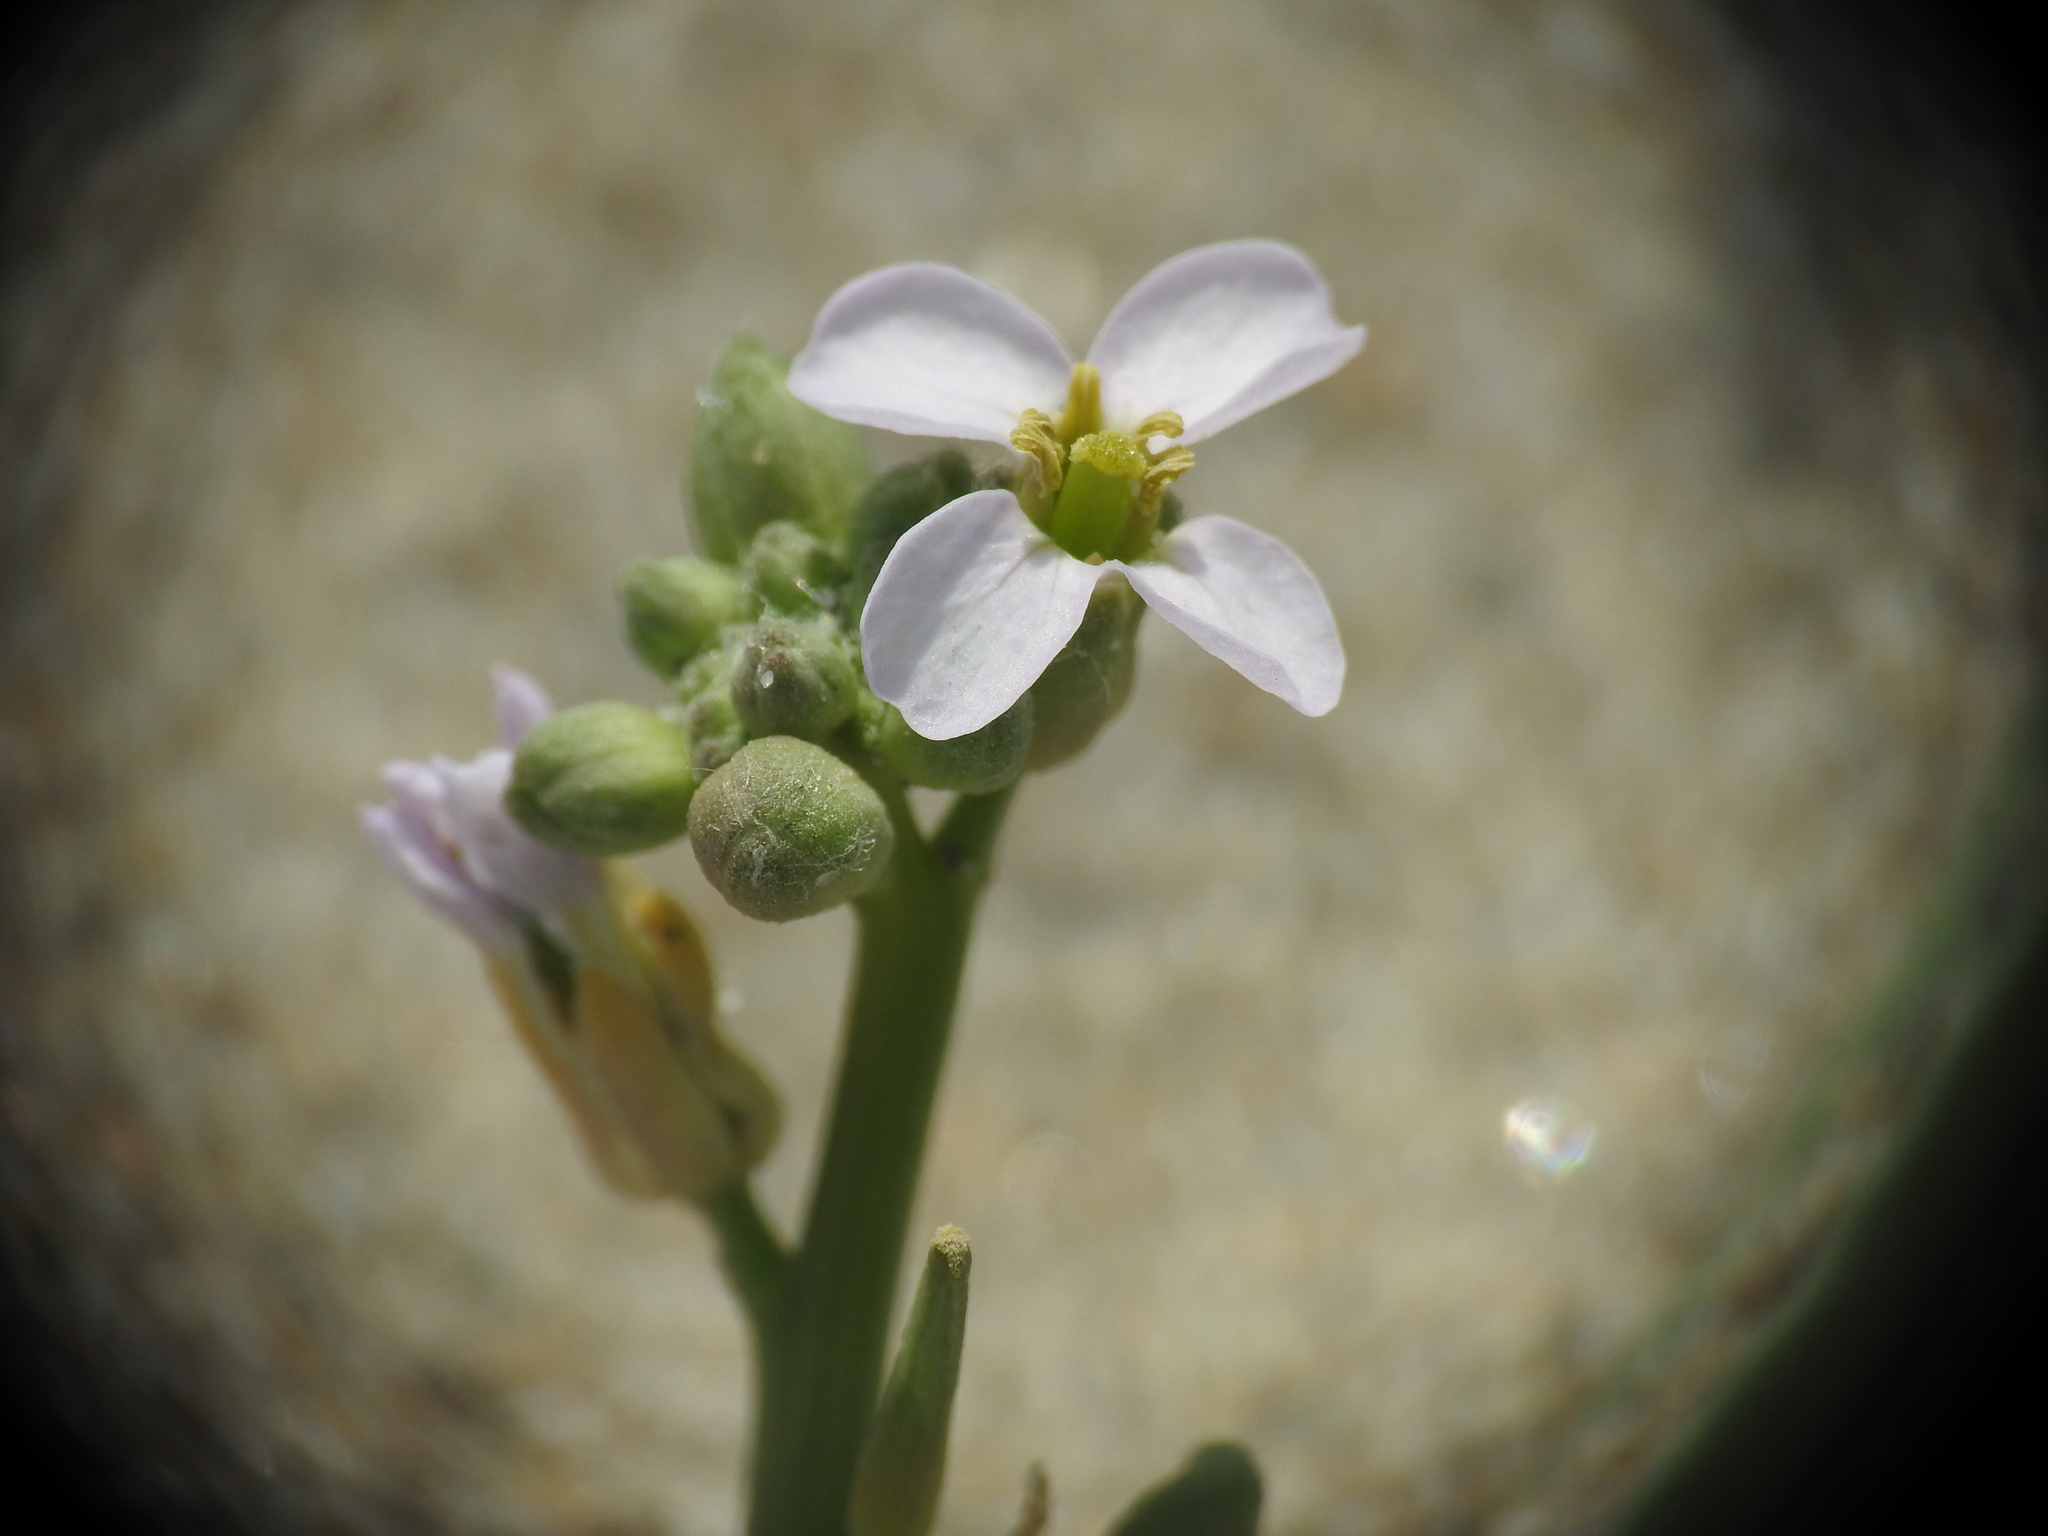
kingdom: Plantae
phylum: Tracheophyta
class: Magnoliopsida
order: Brassicales
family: Brassicaceae
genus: Cakile
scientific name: Cakile maritima
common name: Sea rocket
